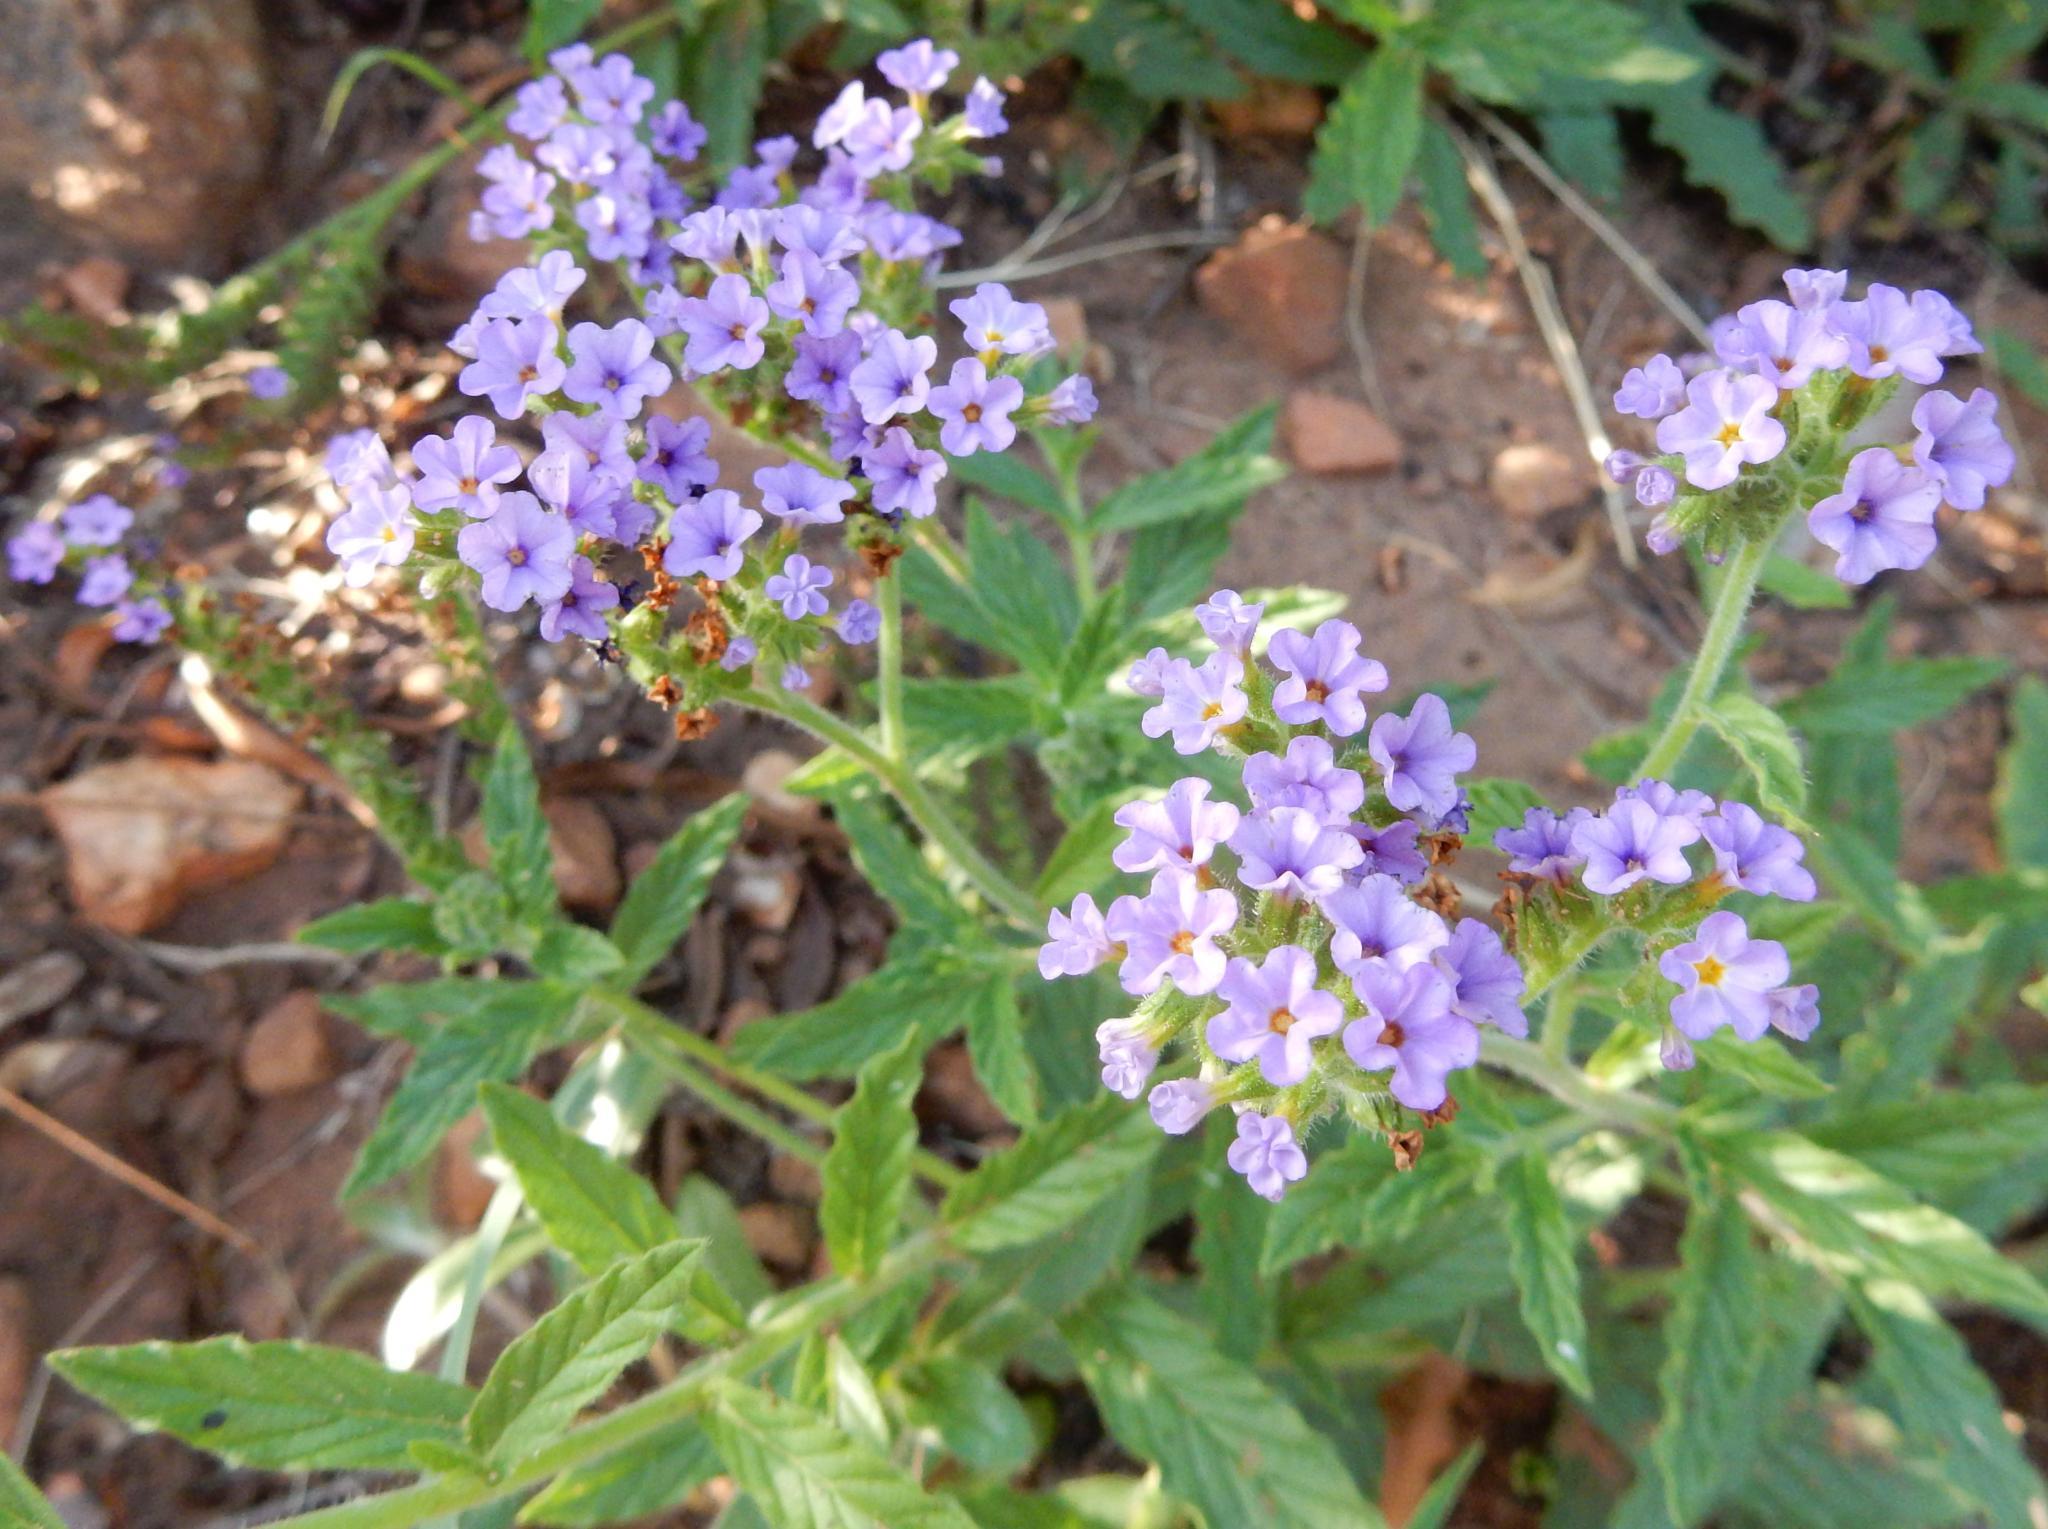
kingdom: Plantae
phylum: Tracheophyta
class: Magnoliopsida
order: Boraginales
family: Heliotropiaceae
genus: Heliotropium
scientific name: Heliotropium amplexicaule
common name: Clasping heliotrope
